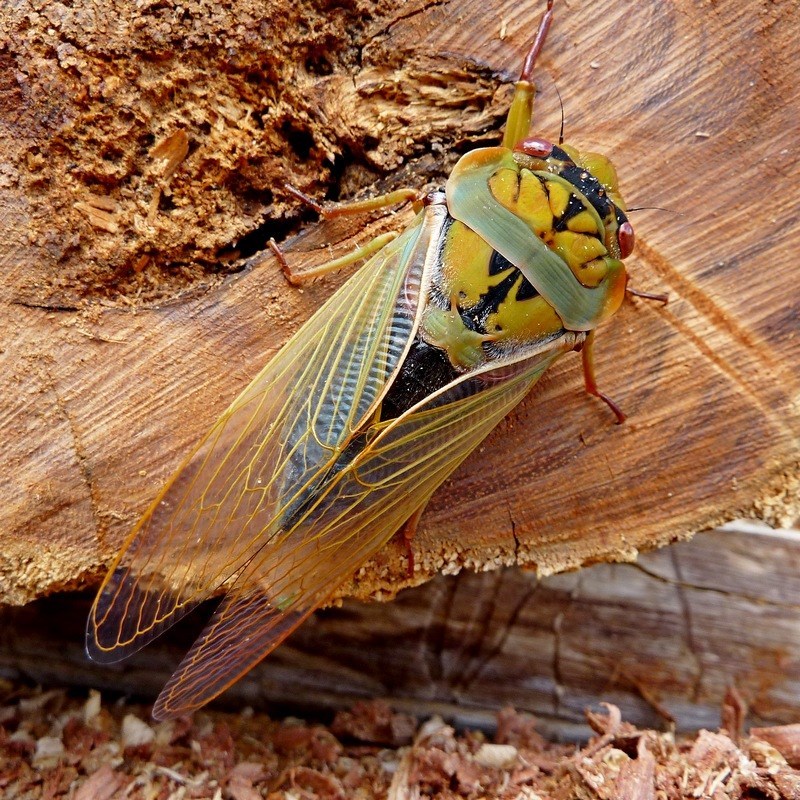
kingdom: Animalia
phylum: Arthropoda
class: Insecta
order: Hemiptera
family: Cicadidae
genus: Cyclochila
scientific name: Cyclochila australasiae
